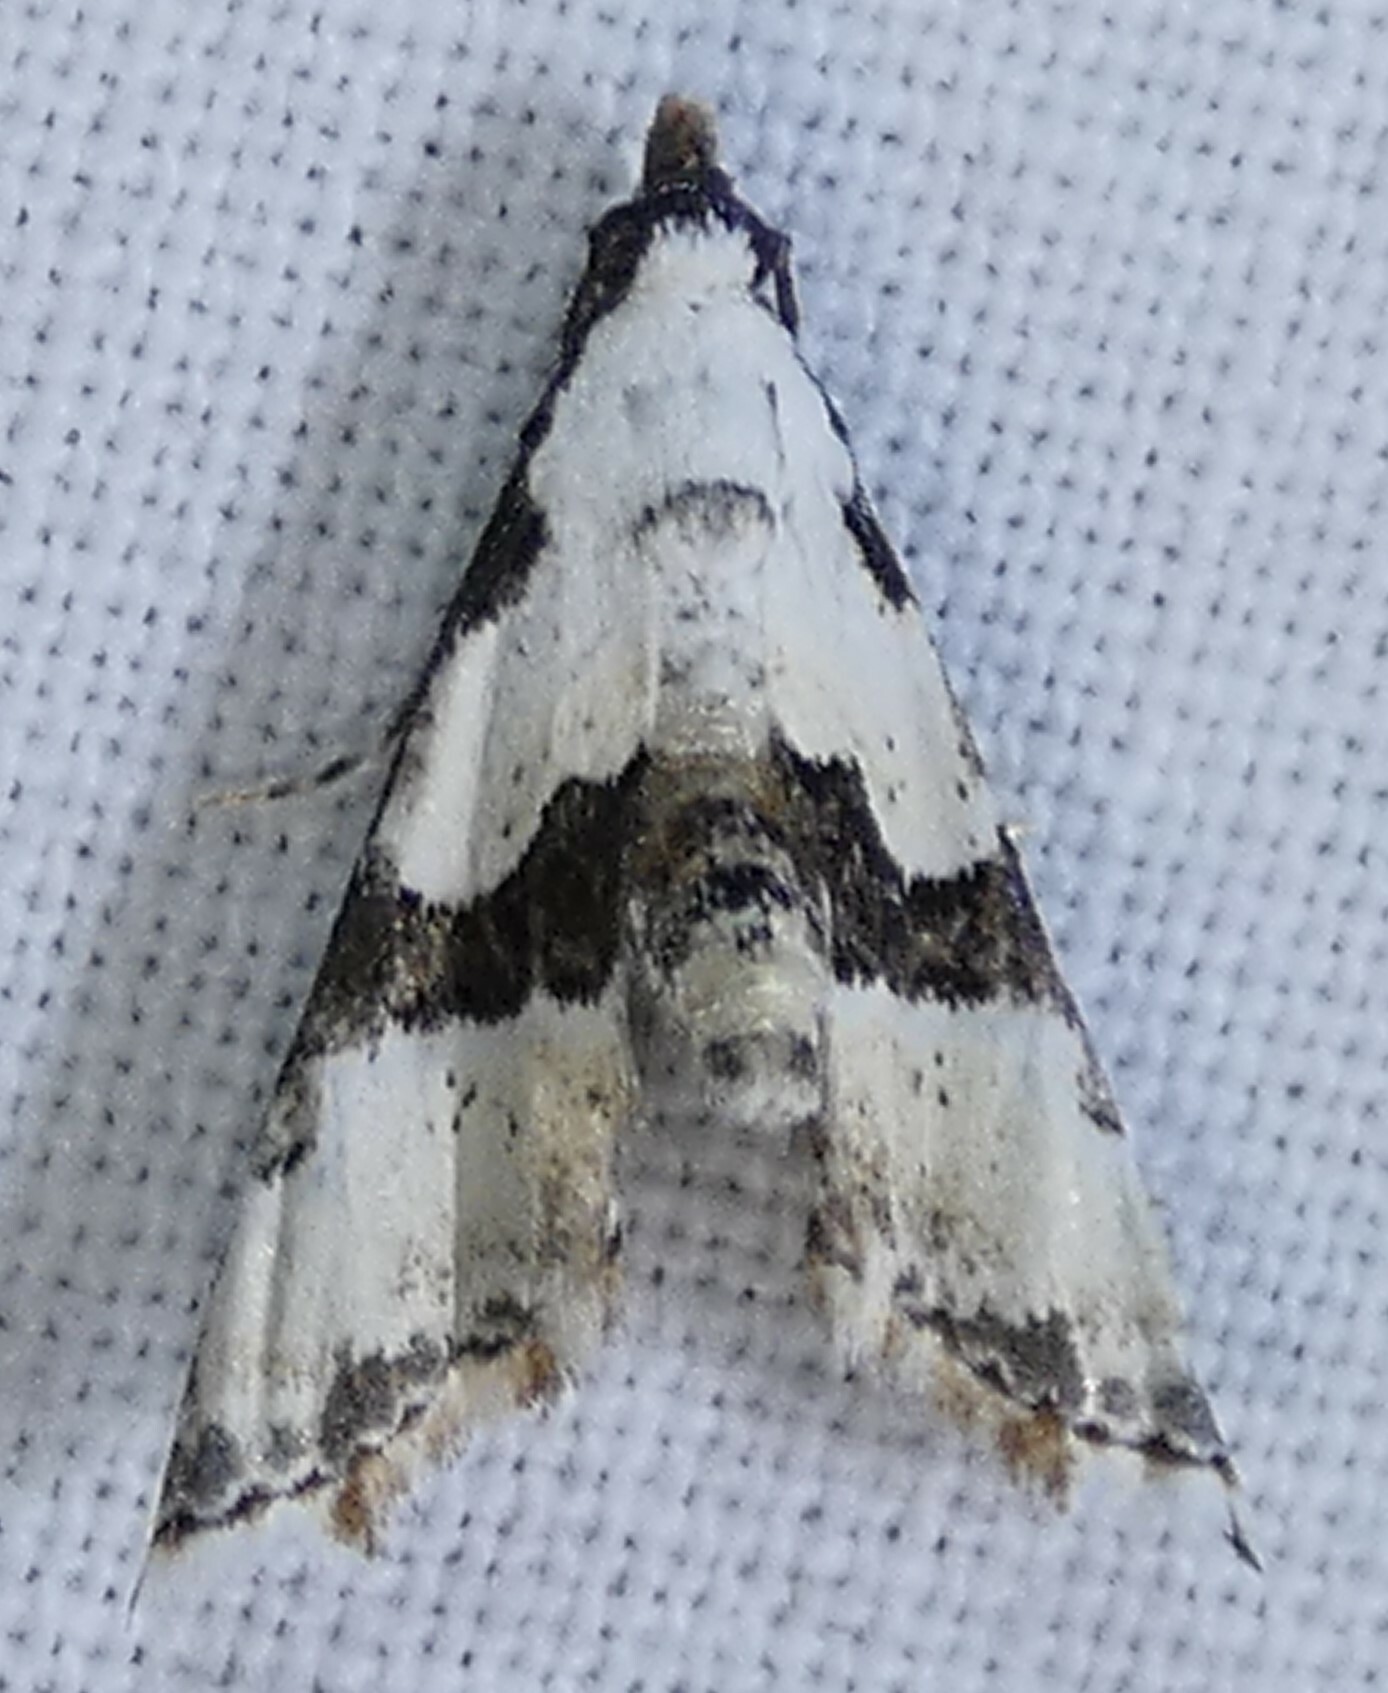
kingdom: Animalia
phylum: Arthropoda
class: Insecta
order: Lepidoptera
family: Noctuidae
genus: Nigetia
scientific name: Nigetia formosalis
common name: Thin-winged owlet
